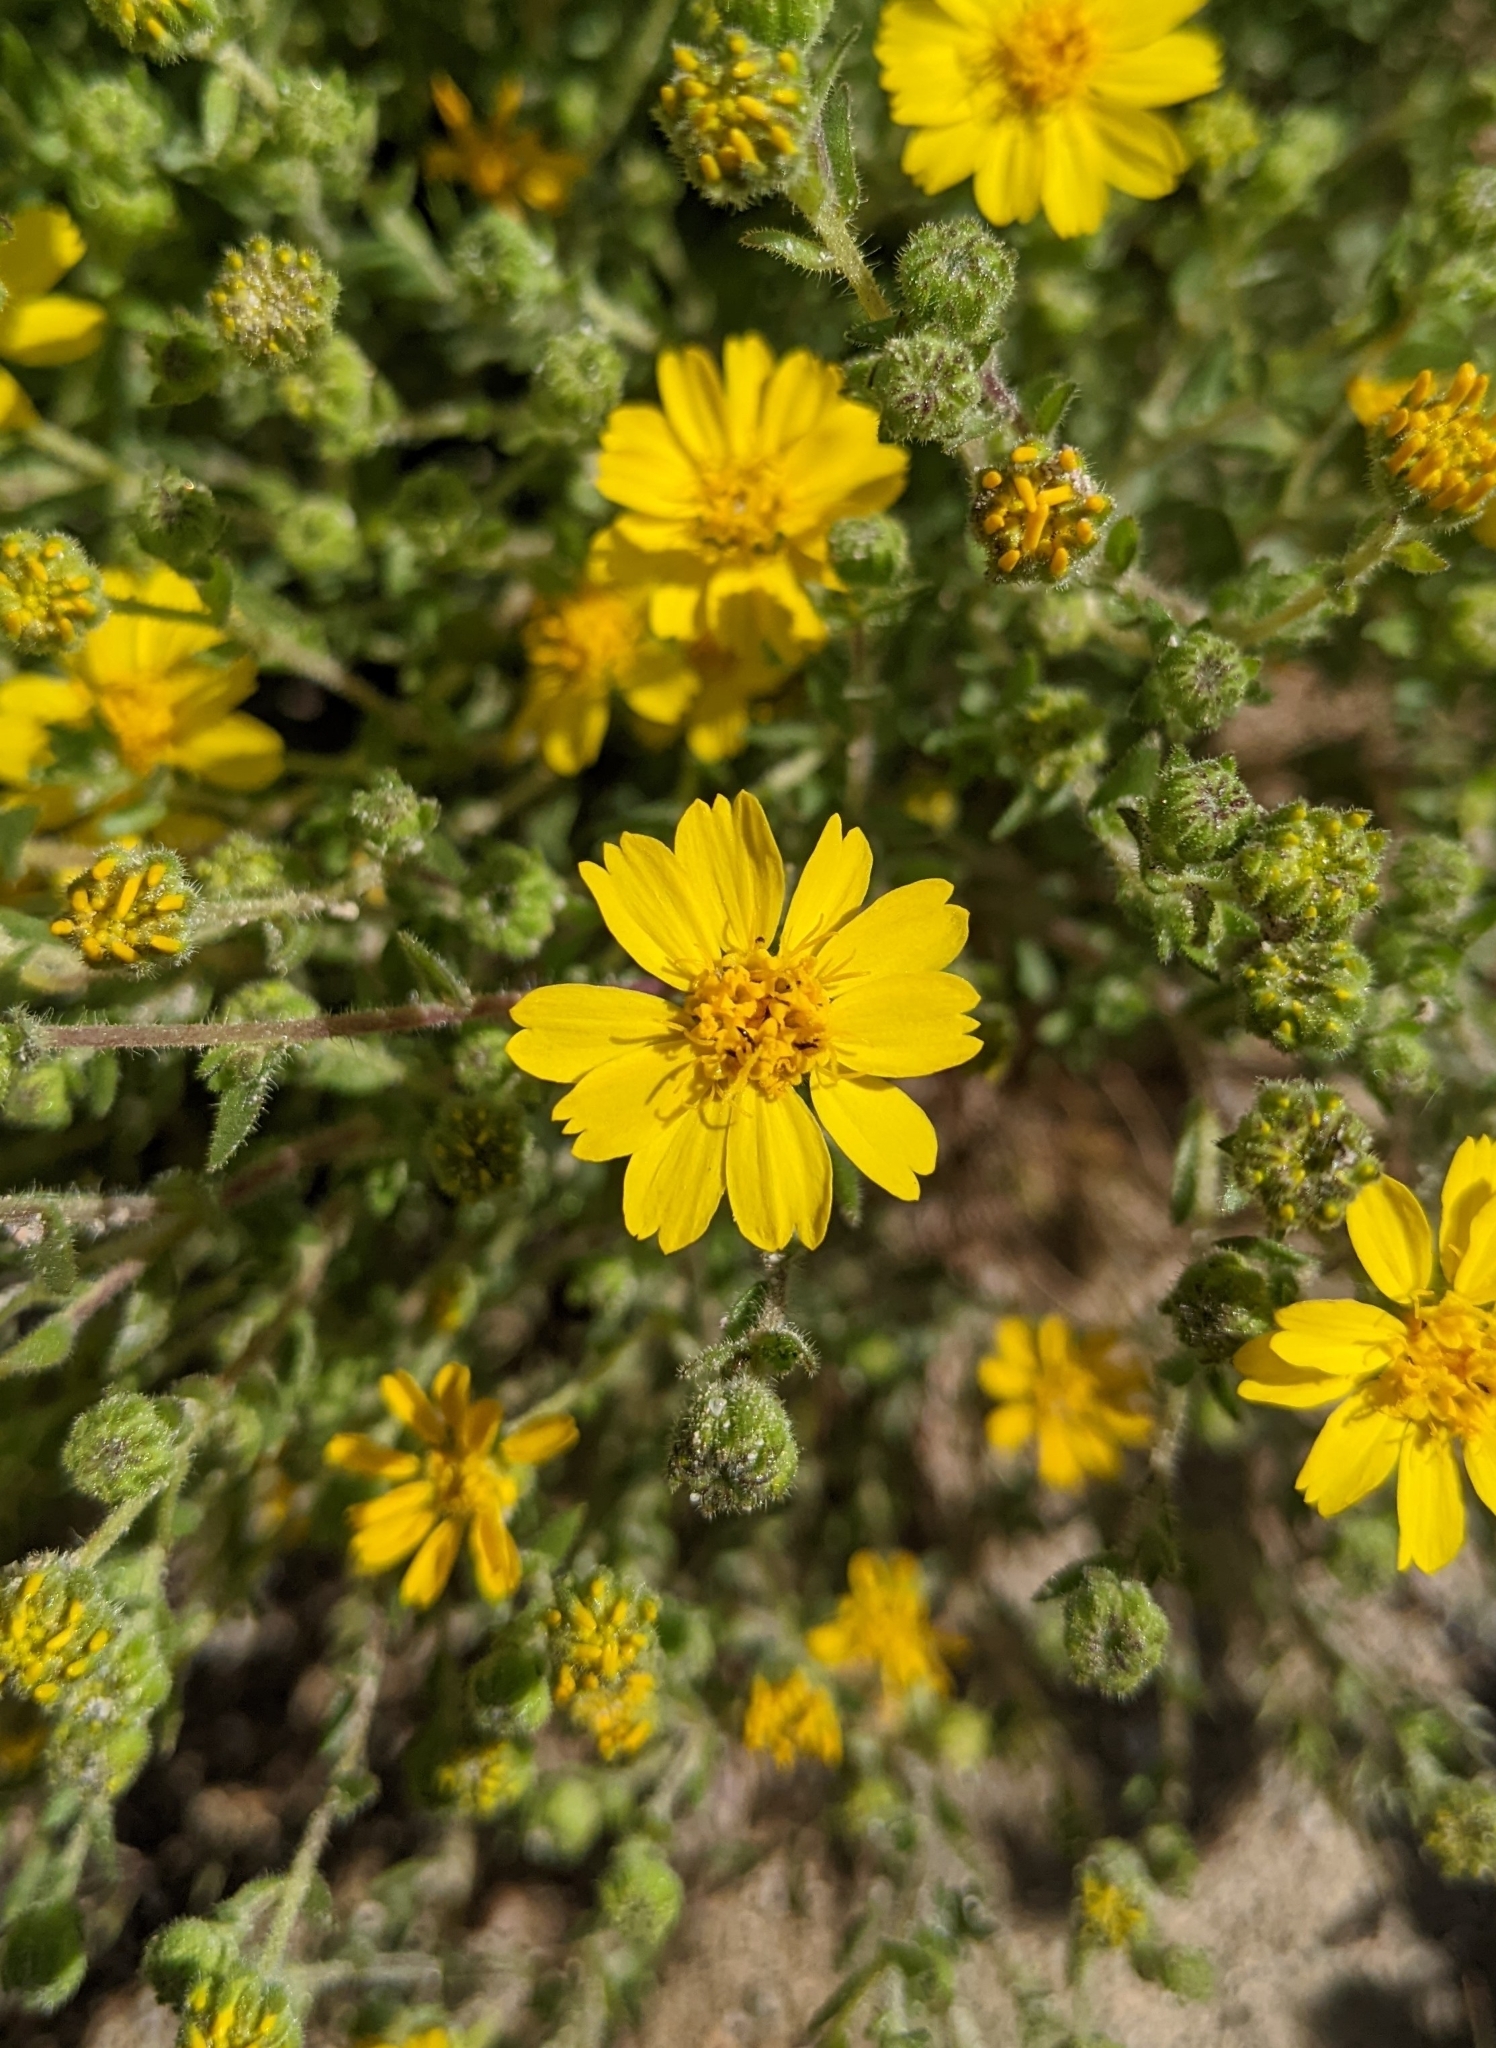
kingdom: Plantae
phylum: Tracheophyta
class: Magnoliopsida
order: Asterales
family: Asteraceae
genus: Deinandra
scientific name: Deinandra arida
